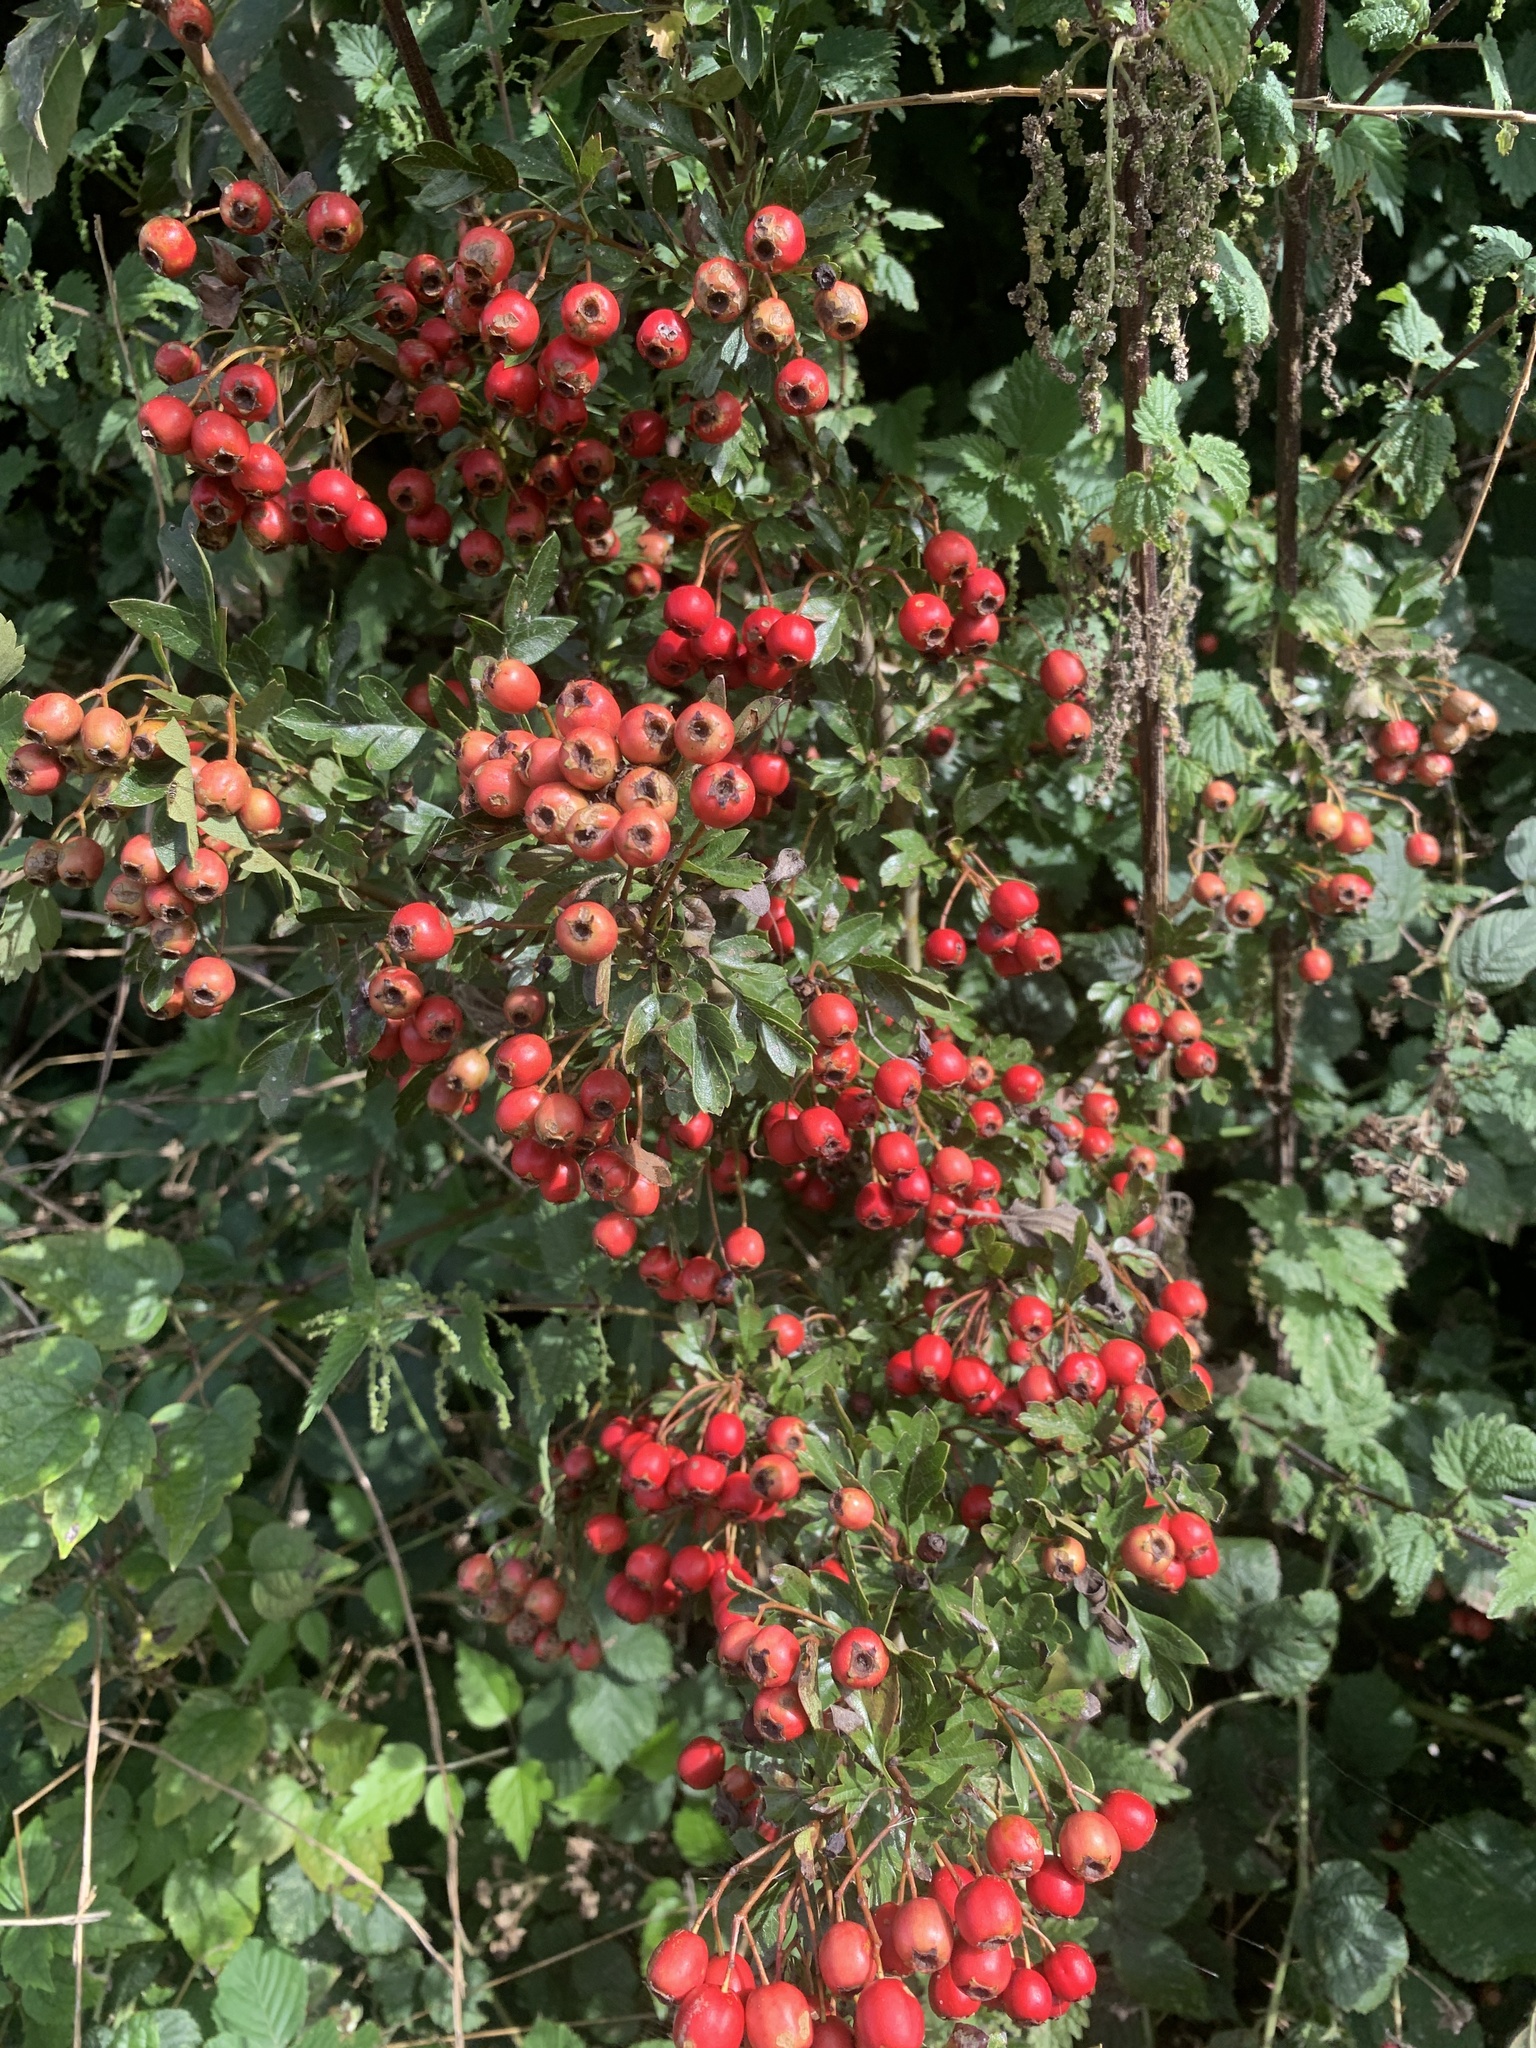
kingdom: Plantae
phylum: Tracheophyta
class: Magnoliopsida
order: Rosales
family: Rosaceae
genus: Crataegus
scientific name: Crataegus monogyna
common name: Hawthorn
